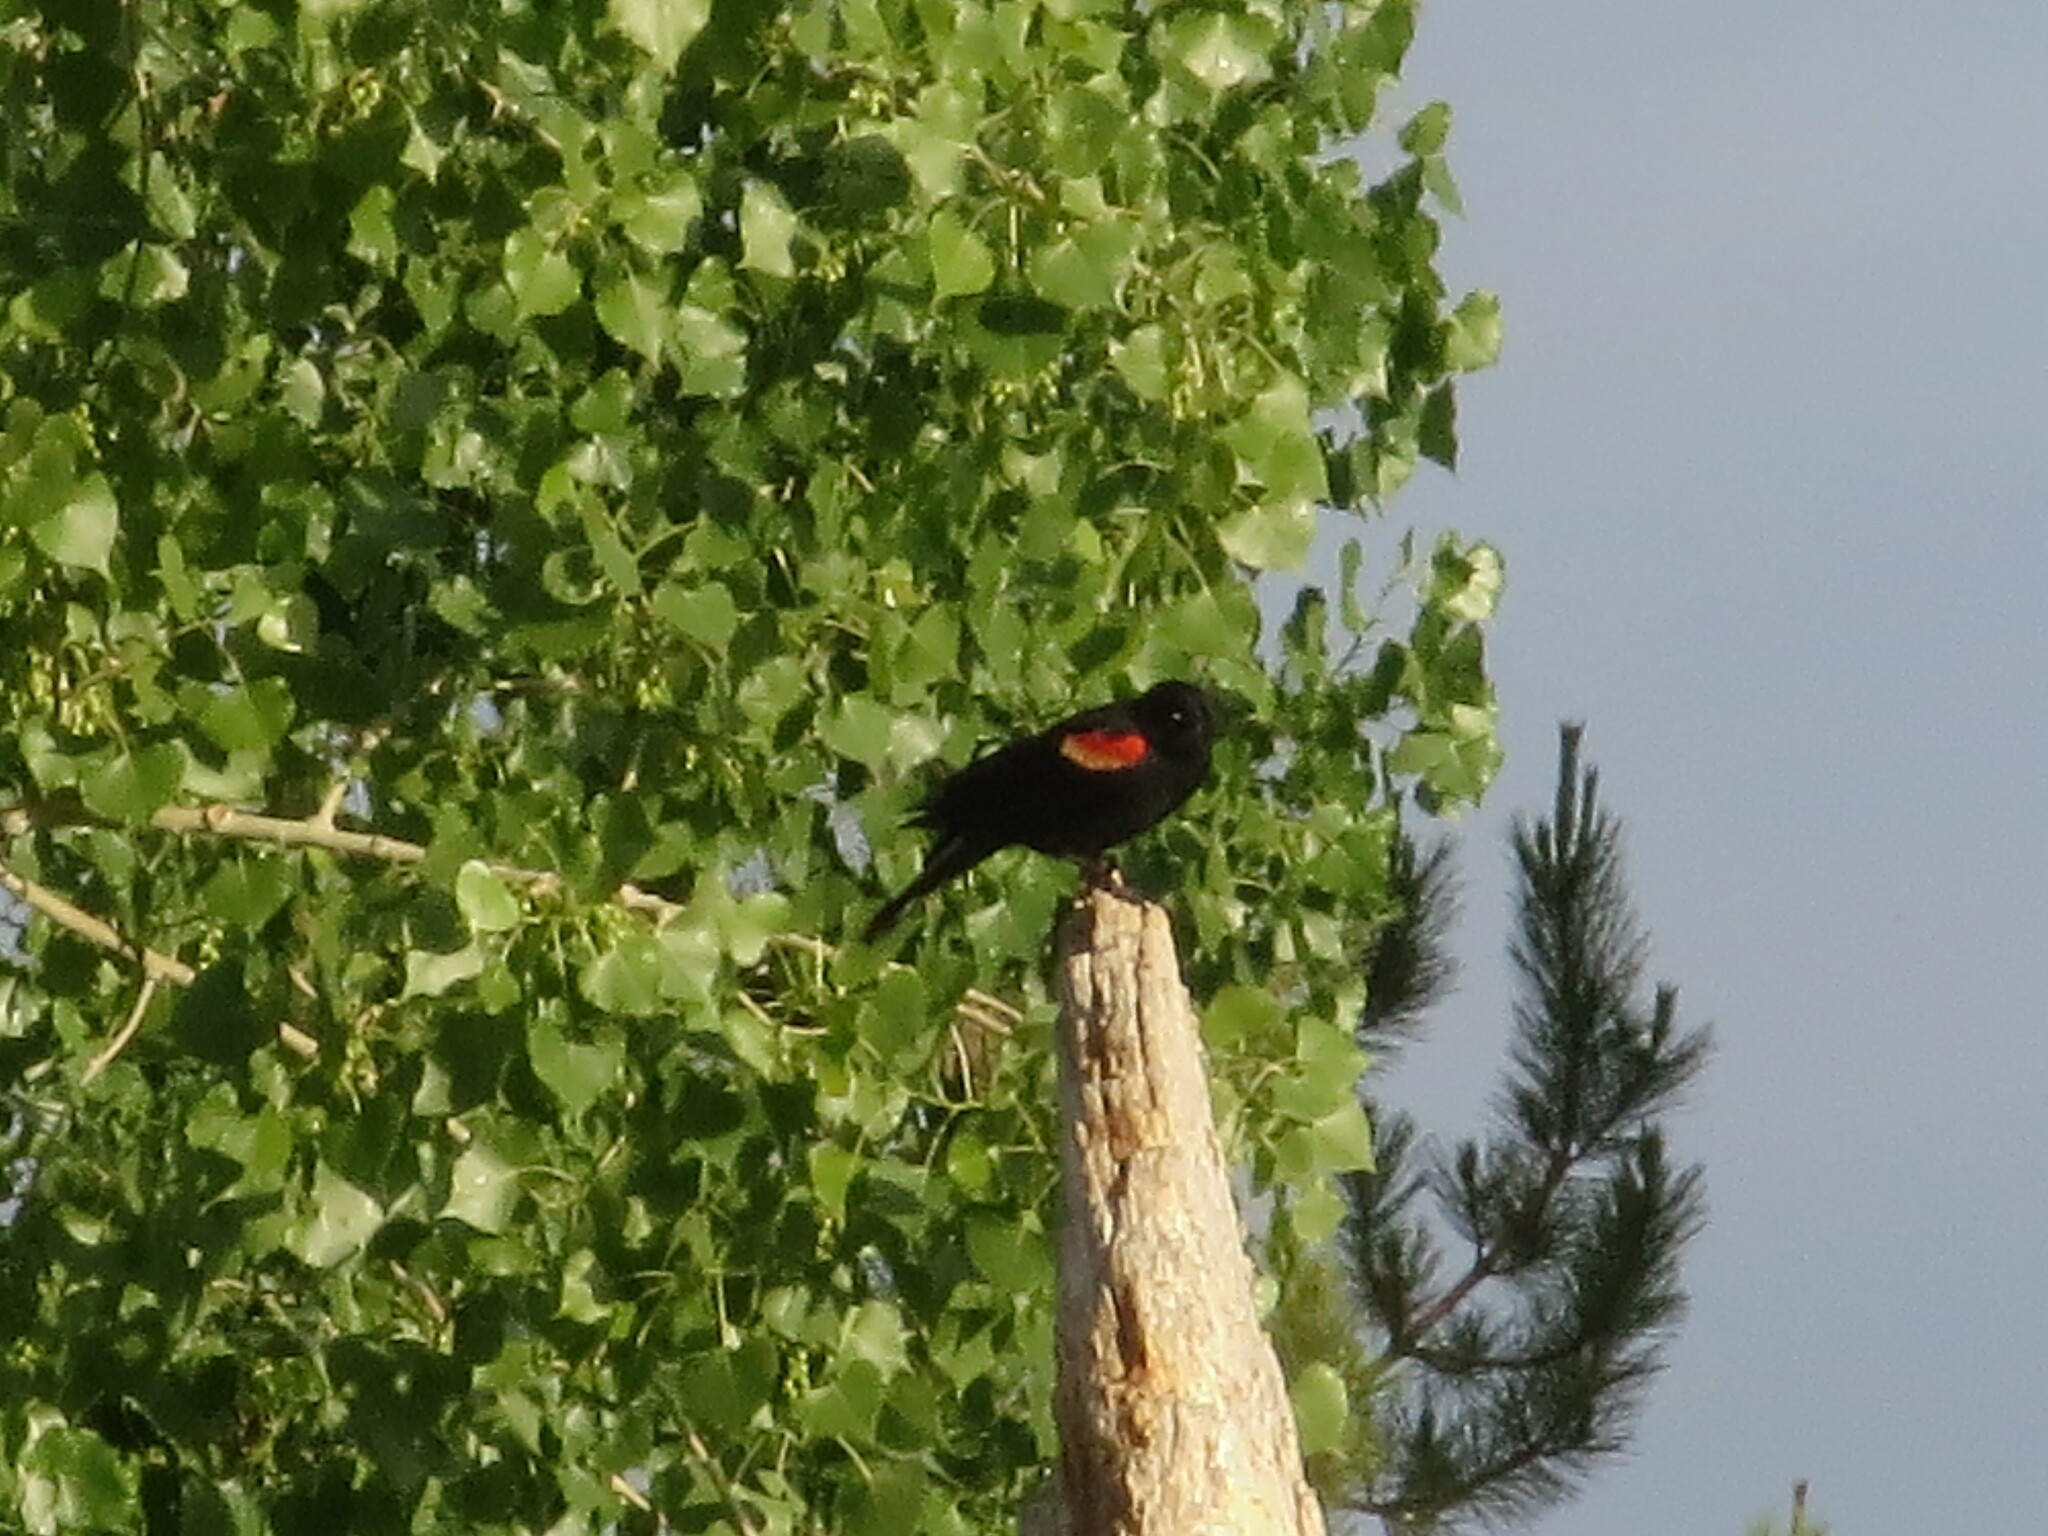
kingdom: Animalia
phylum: Chordata
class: Aves
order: Passeriformes
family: Icteridae
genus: Agelaius
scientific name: Agelaius phoeniceus
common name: Red-winged blackbird
